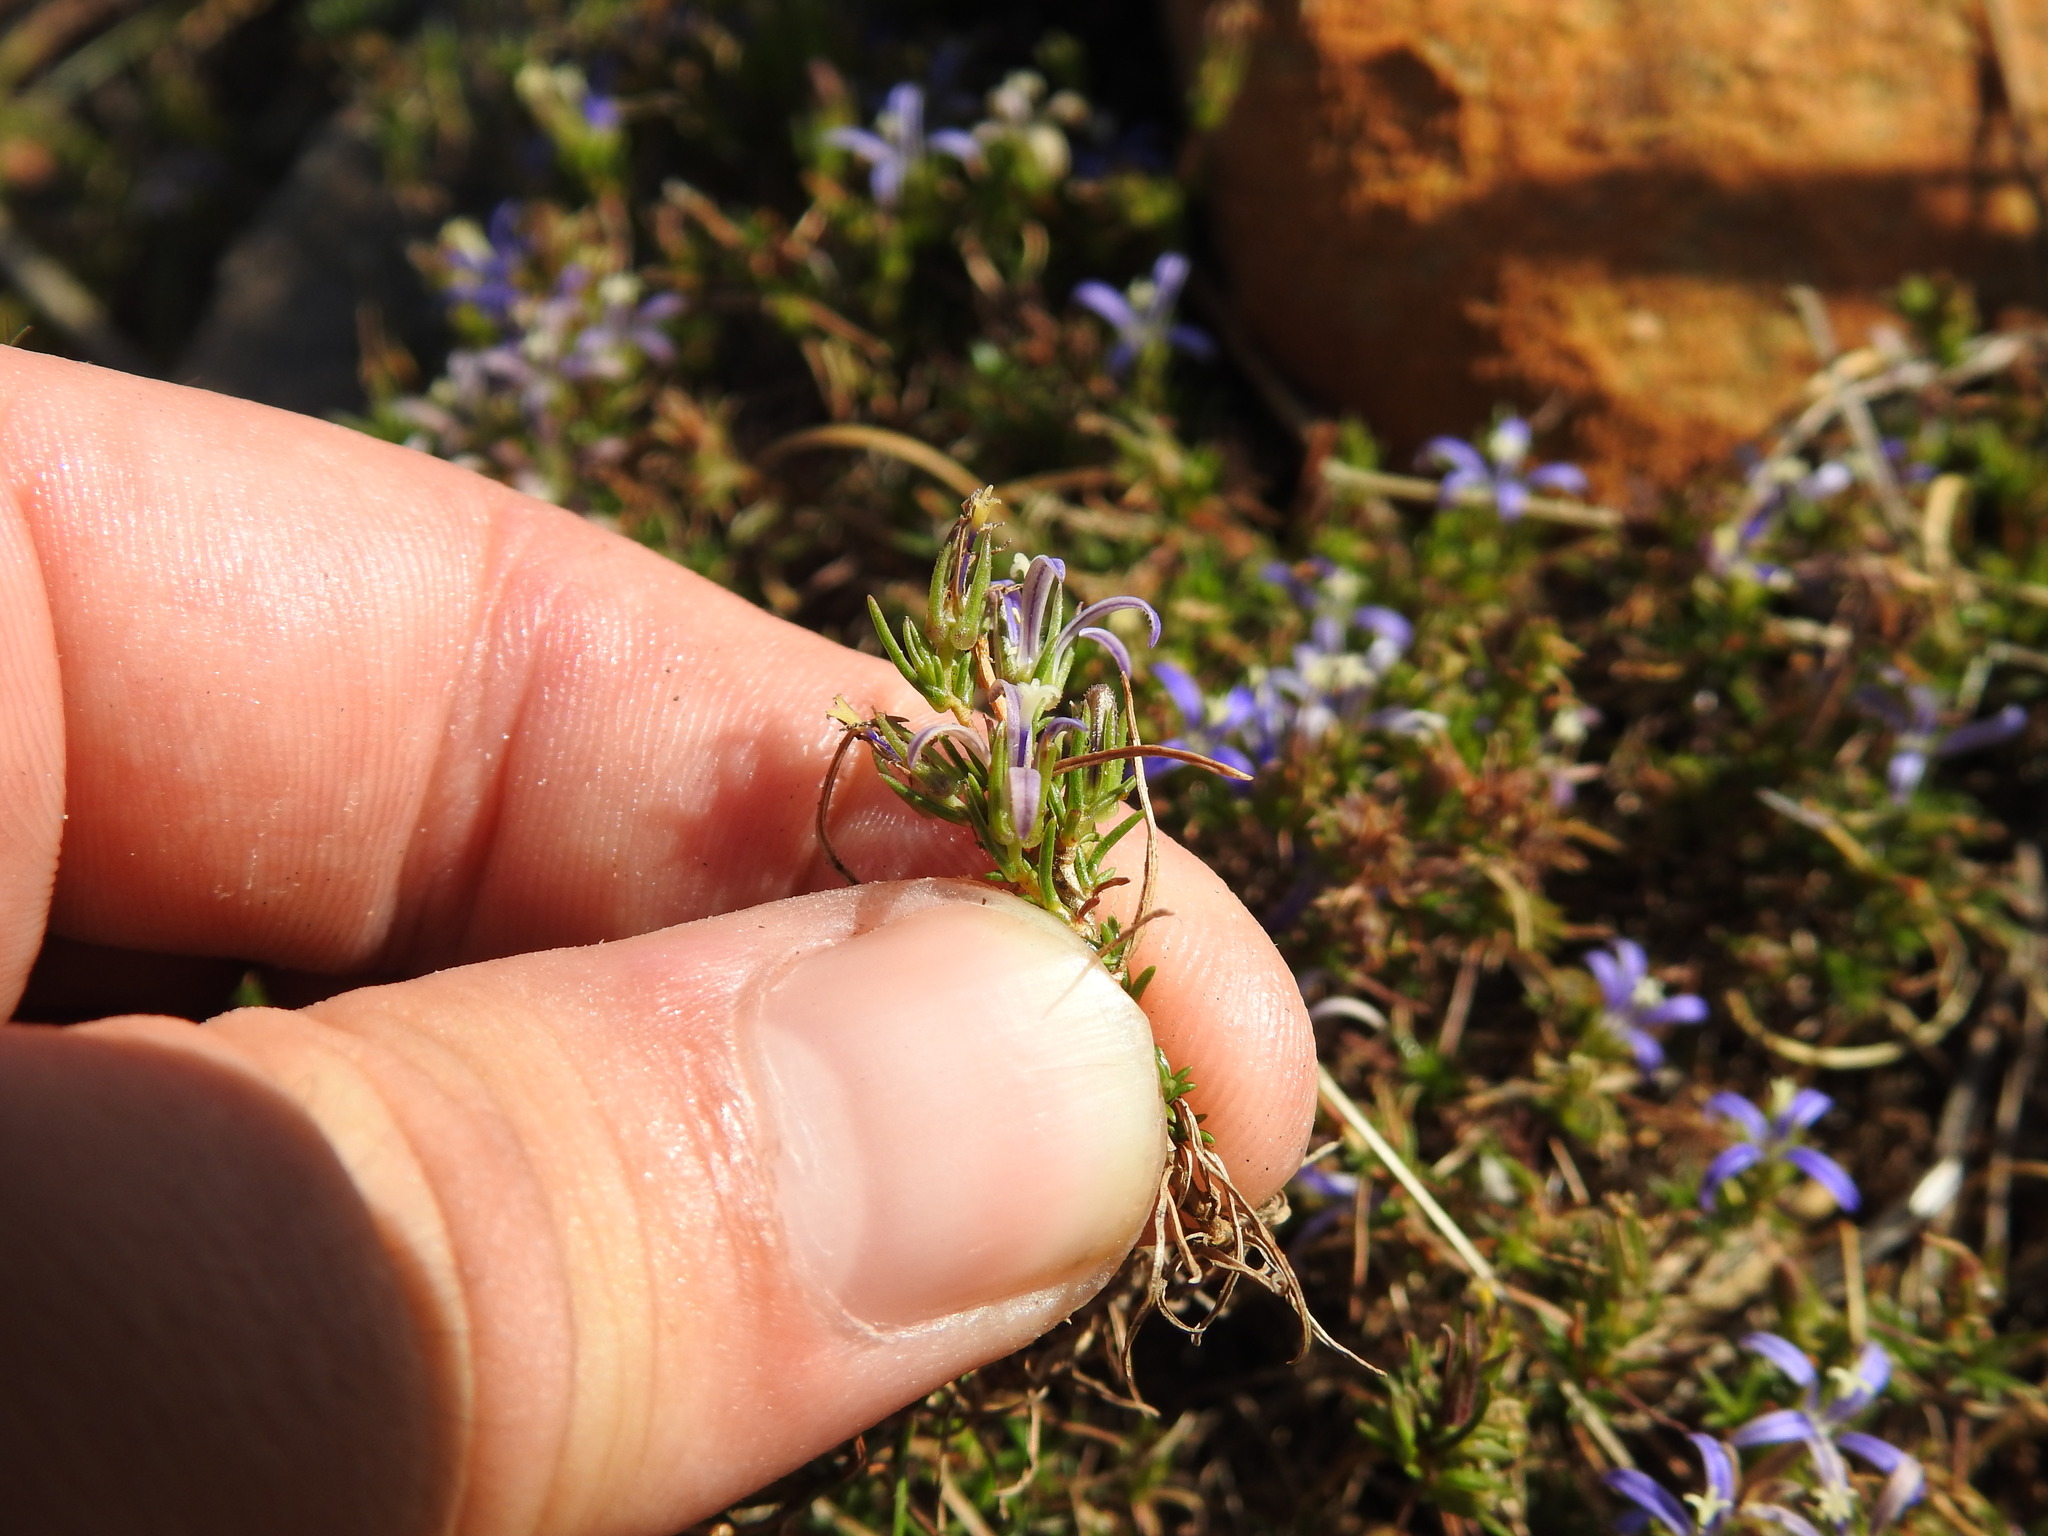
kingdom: Plantae
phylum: Tracheophyta
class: Magnoliopsida
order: Asterales
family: Campanulaceae
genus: Wahlenbergia
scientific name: Wahlenbergia subulata
